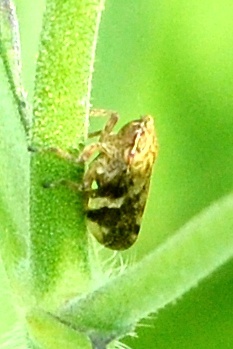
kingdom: Animalia
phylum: Arthropoda
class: Insecta
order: Hemiptera
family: Aphrophoridae
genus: Aphrophora
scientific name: Aphrophora alni
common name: European alder spittlebug
